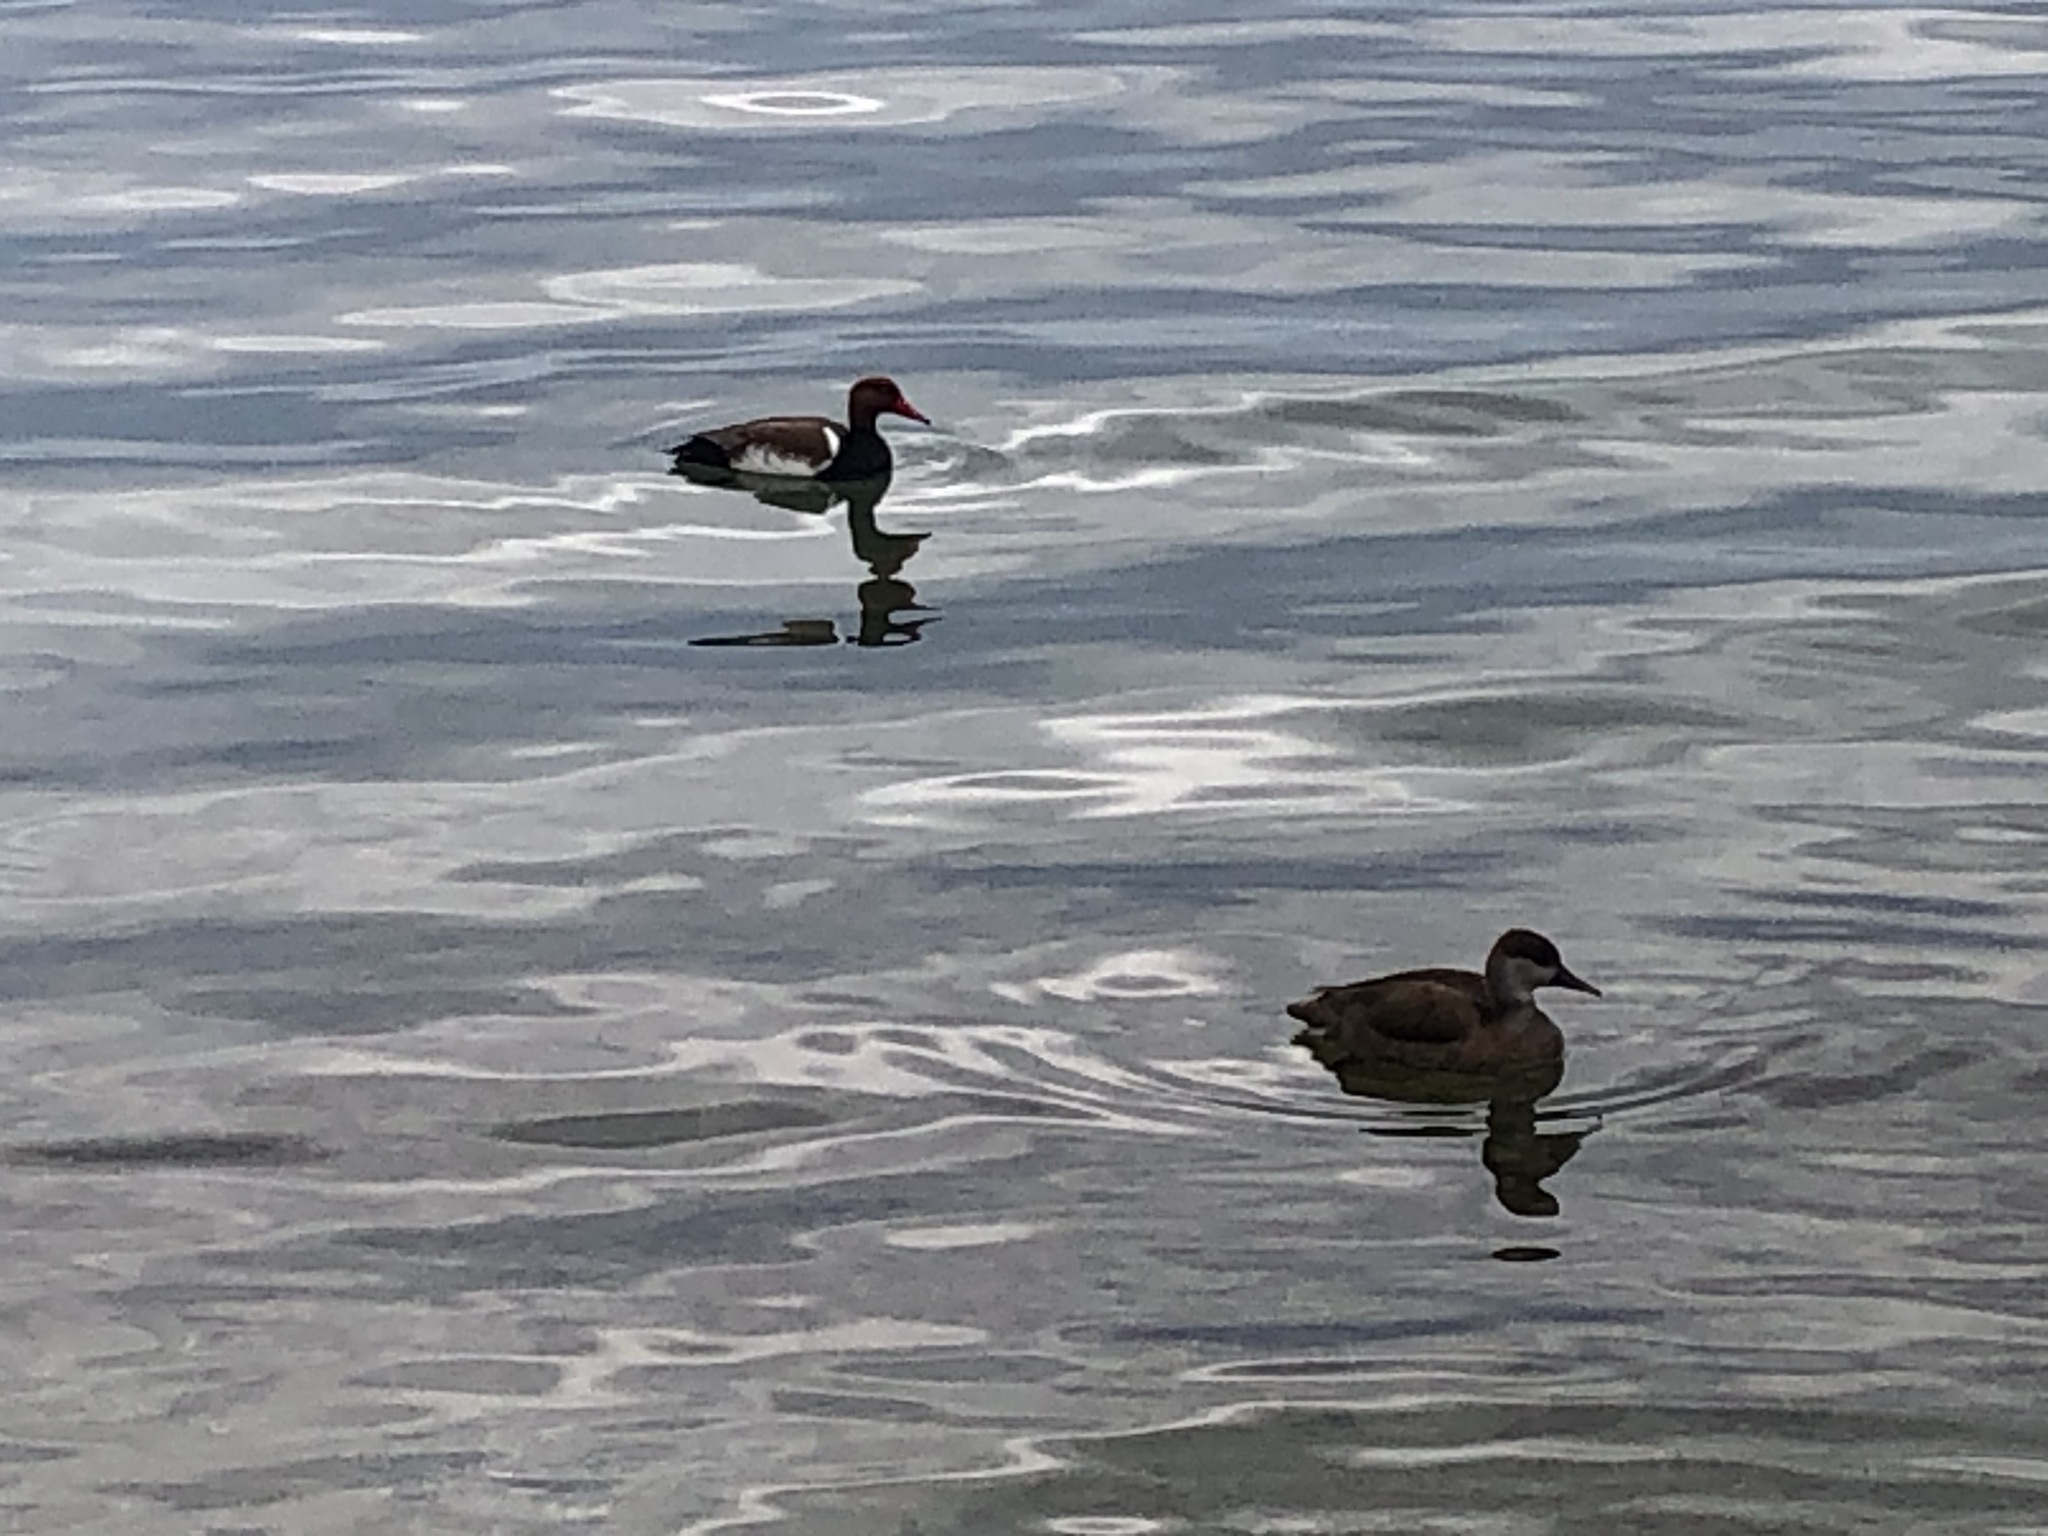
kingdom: Animalia
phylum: Chordata
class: Aves
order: Anseriformes
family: Anatidae
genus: Netta
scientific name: Netta rufina
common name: Red-crested pochard
